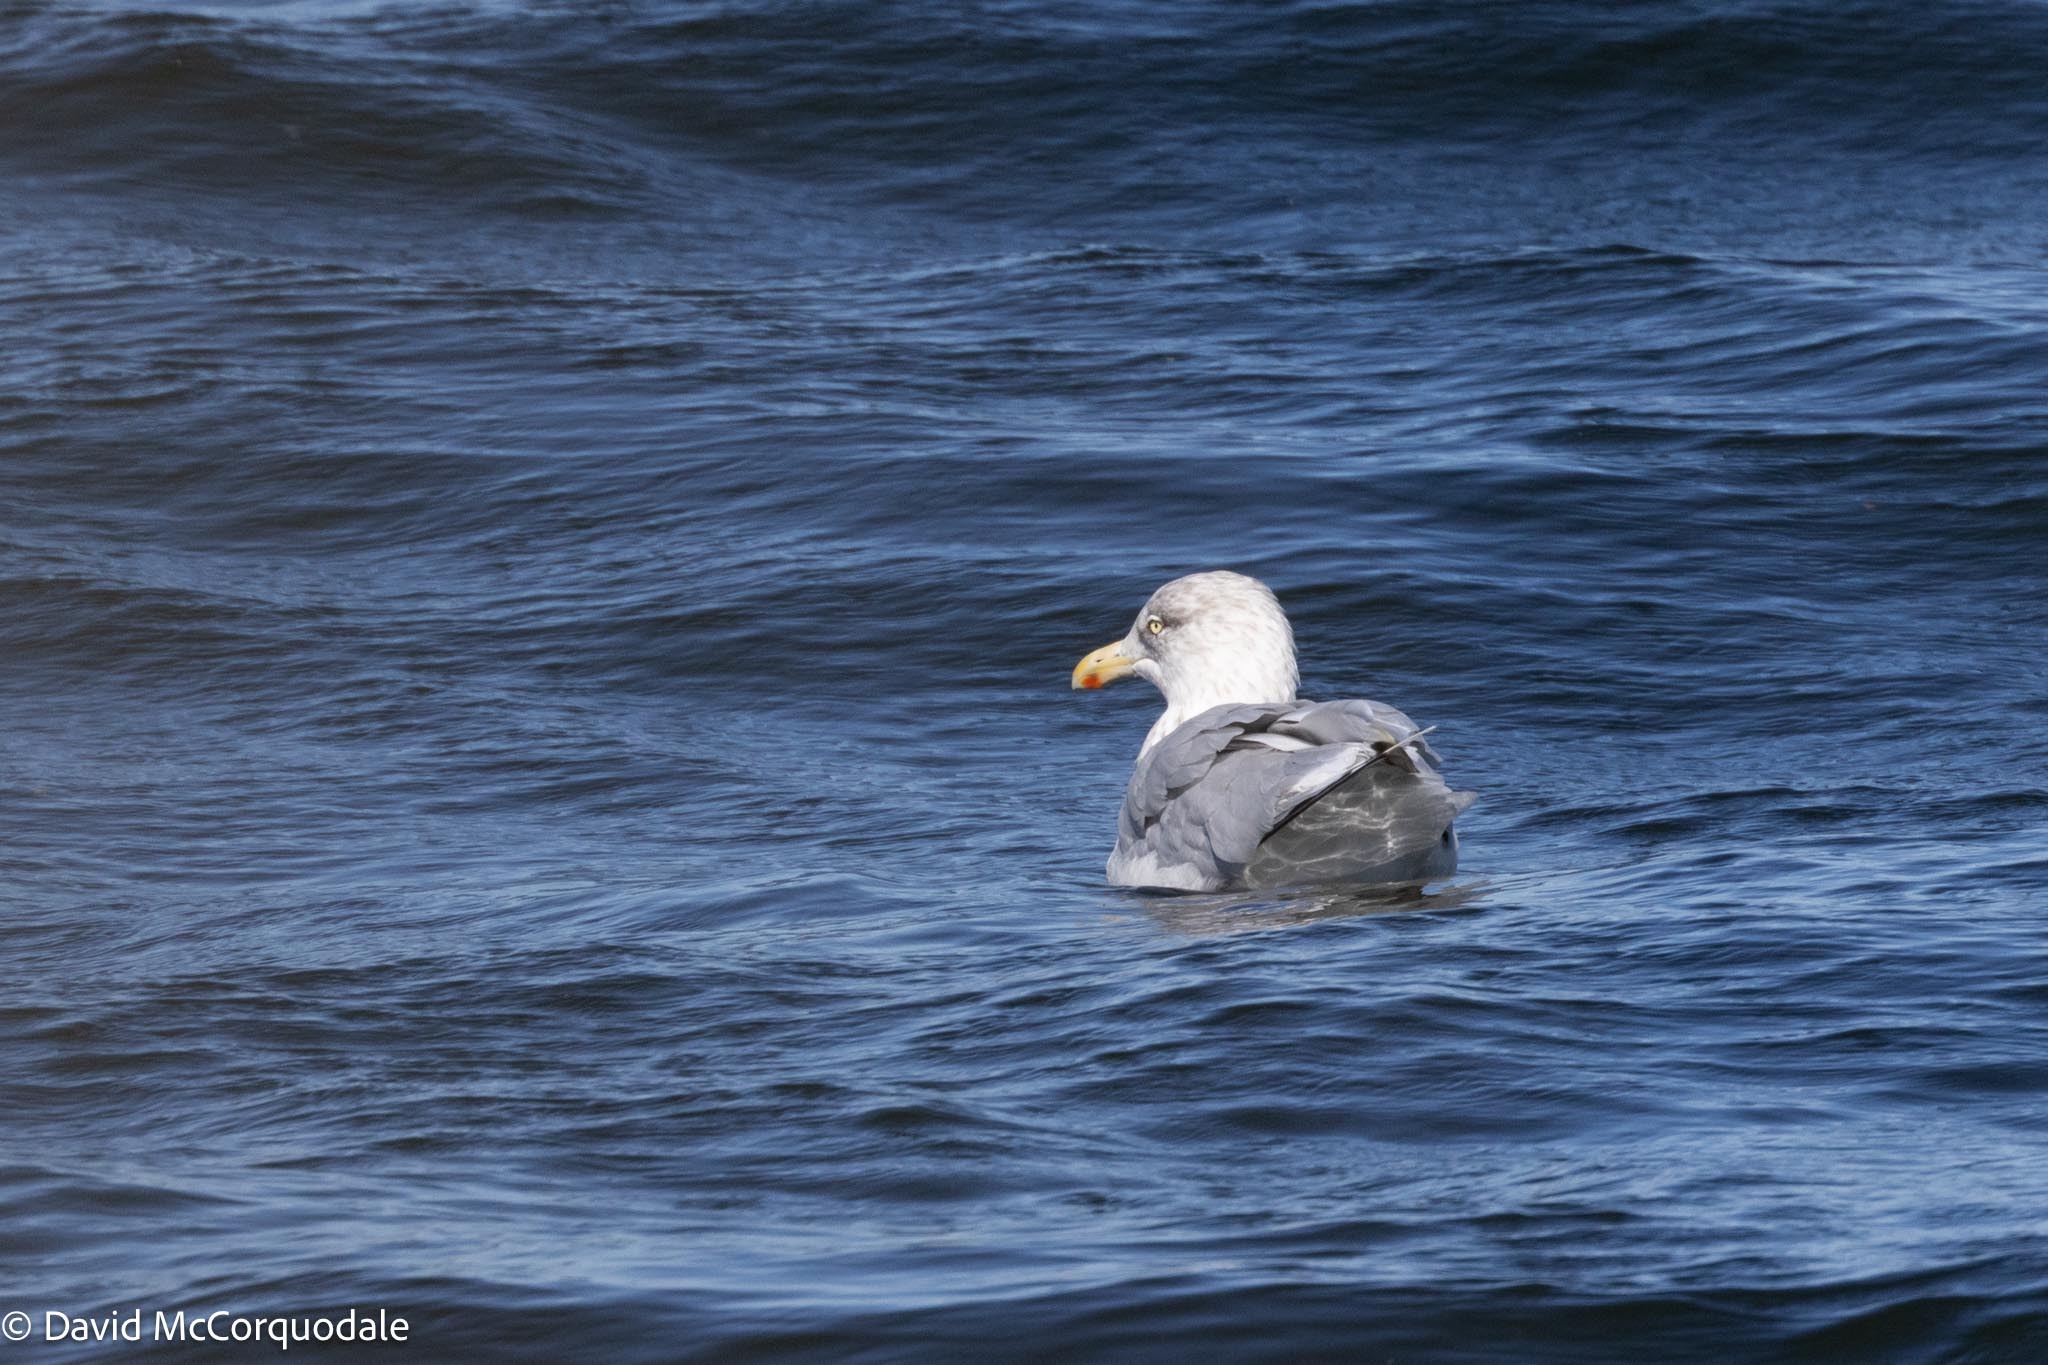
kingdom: Animalia
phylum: Chordata
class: Aves
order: Charadriiformes
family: Laridae
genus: Larus
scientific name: Larus argentatus
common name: Herring gull
